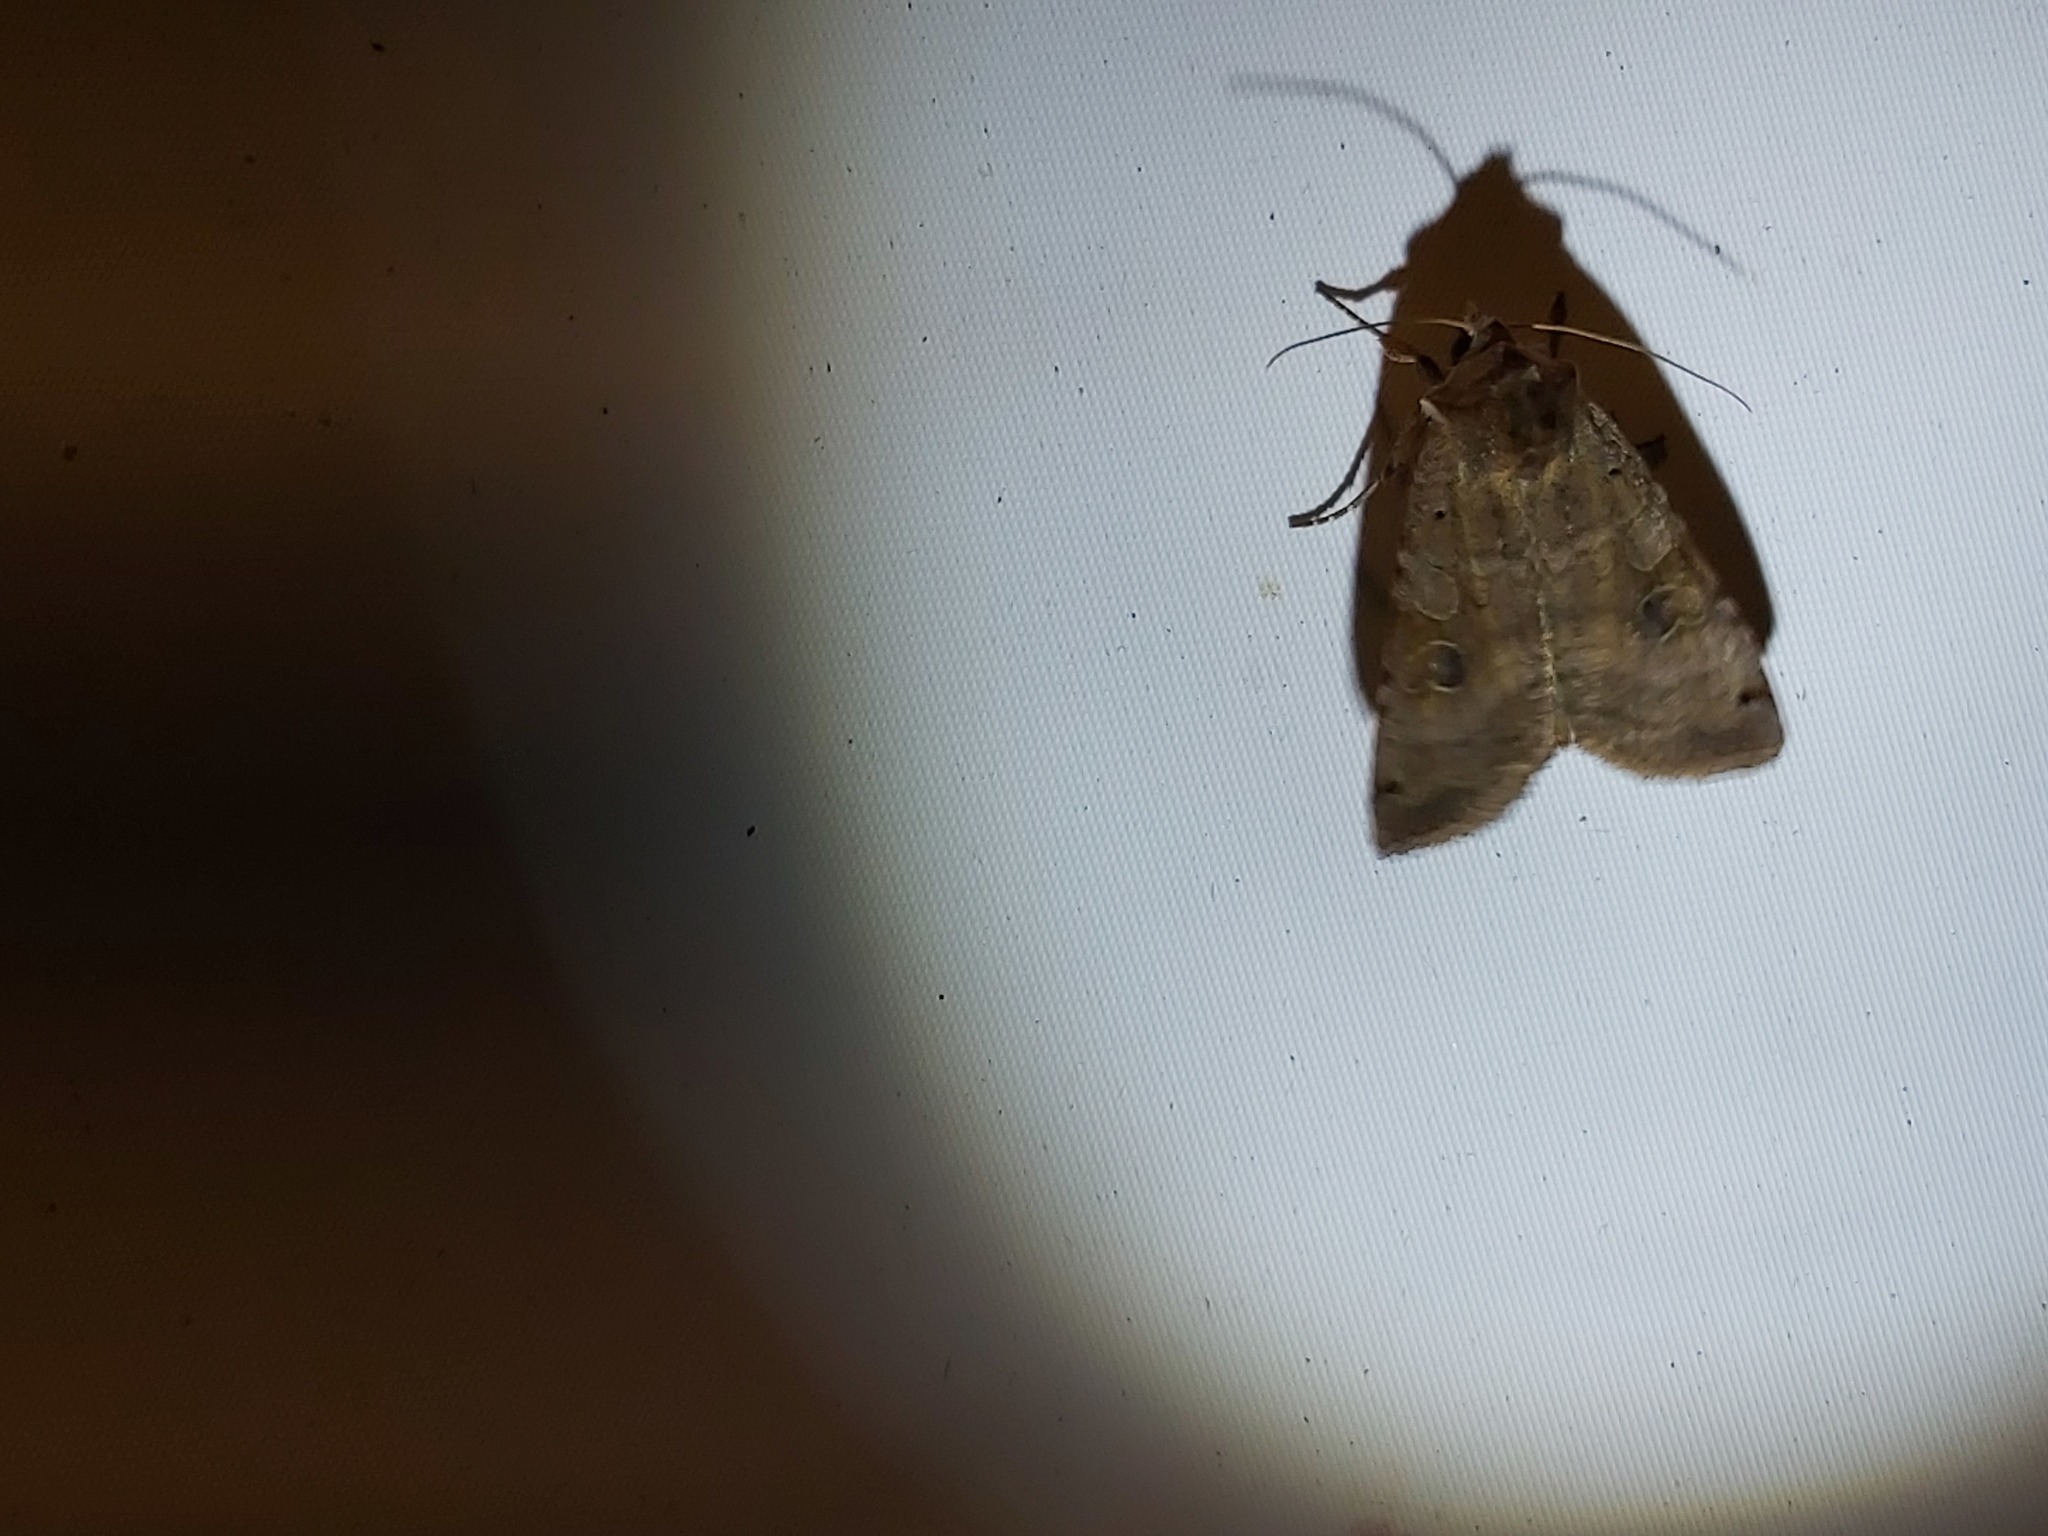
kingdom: Animalia
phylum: Arthropoda
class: Insecta
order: Lepidoptera
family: Noctuidae
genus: Xestia
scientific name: Xestia baja
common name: Dotted clay
